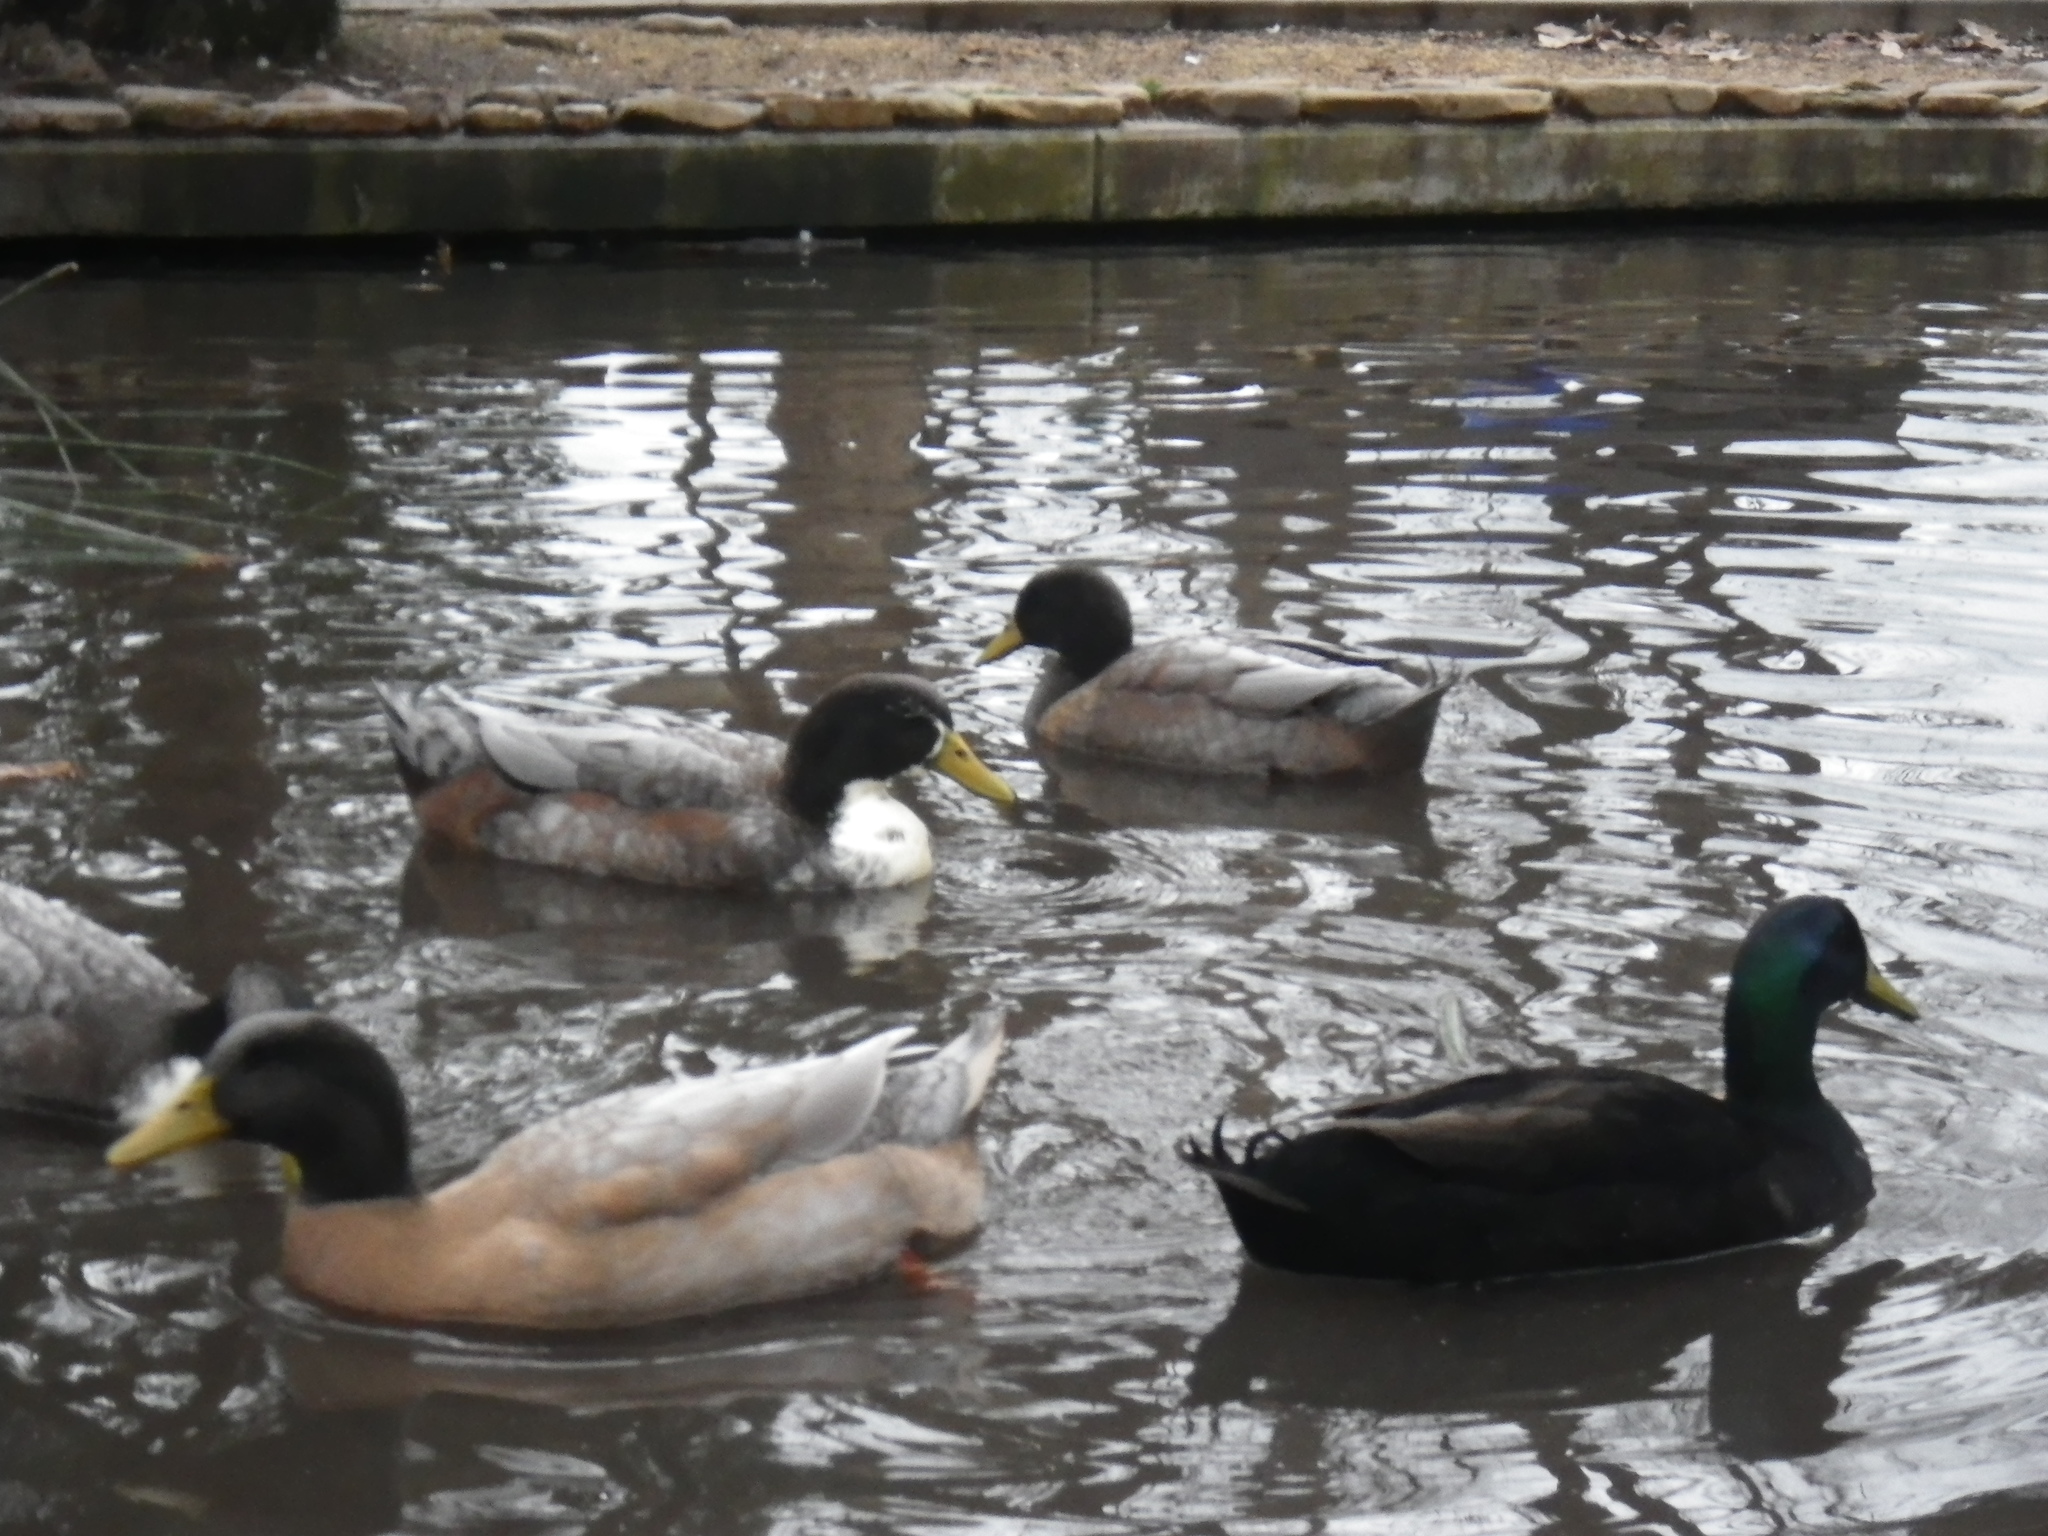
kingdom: Animalia
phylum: Chordata
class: Aves
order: Anseriformes
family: Anatidae
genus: Anas
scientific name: Anas platyrhynchos
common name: Mallard
